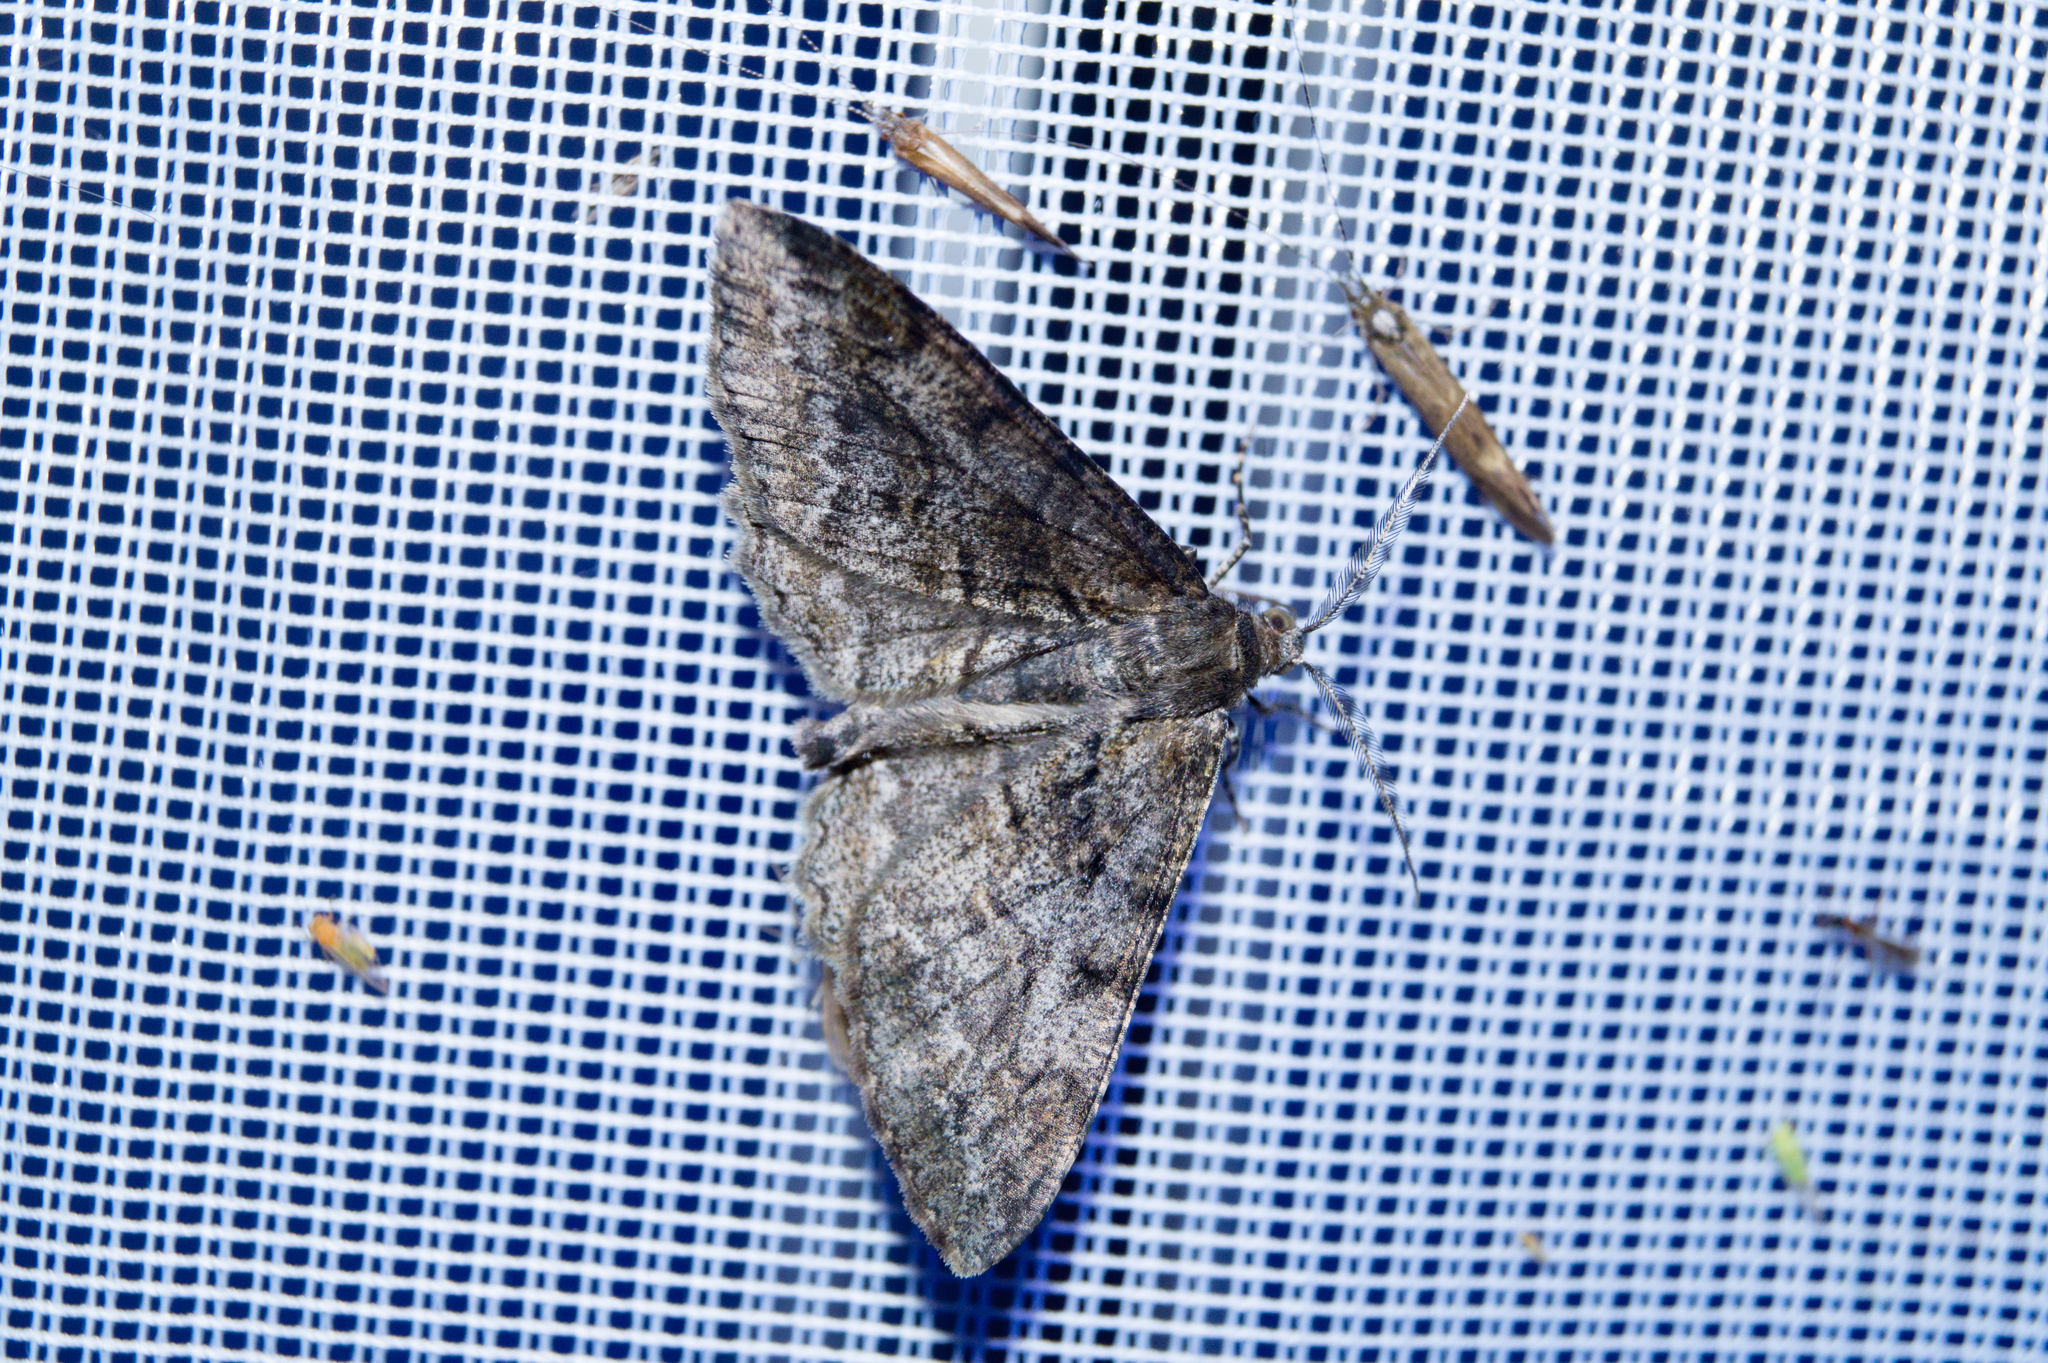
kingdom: Animalia
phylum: Arthropoda
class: Insecta
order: Lepidoptera
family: Geometridae
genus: Alcis
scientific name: Alcis repandata
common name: Mottled beauty
